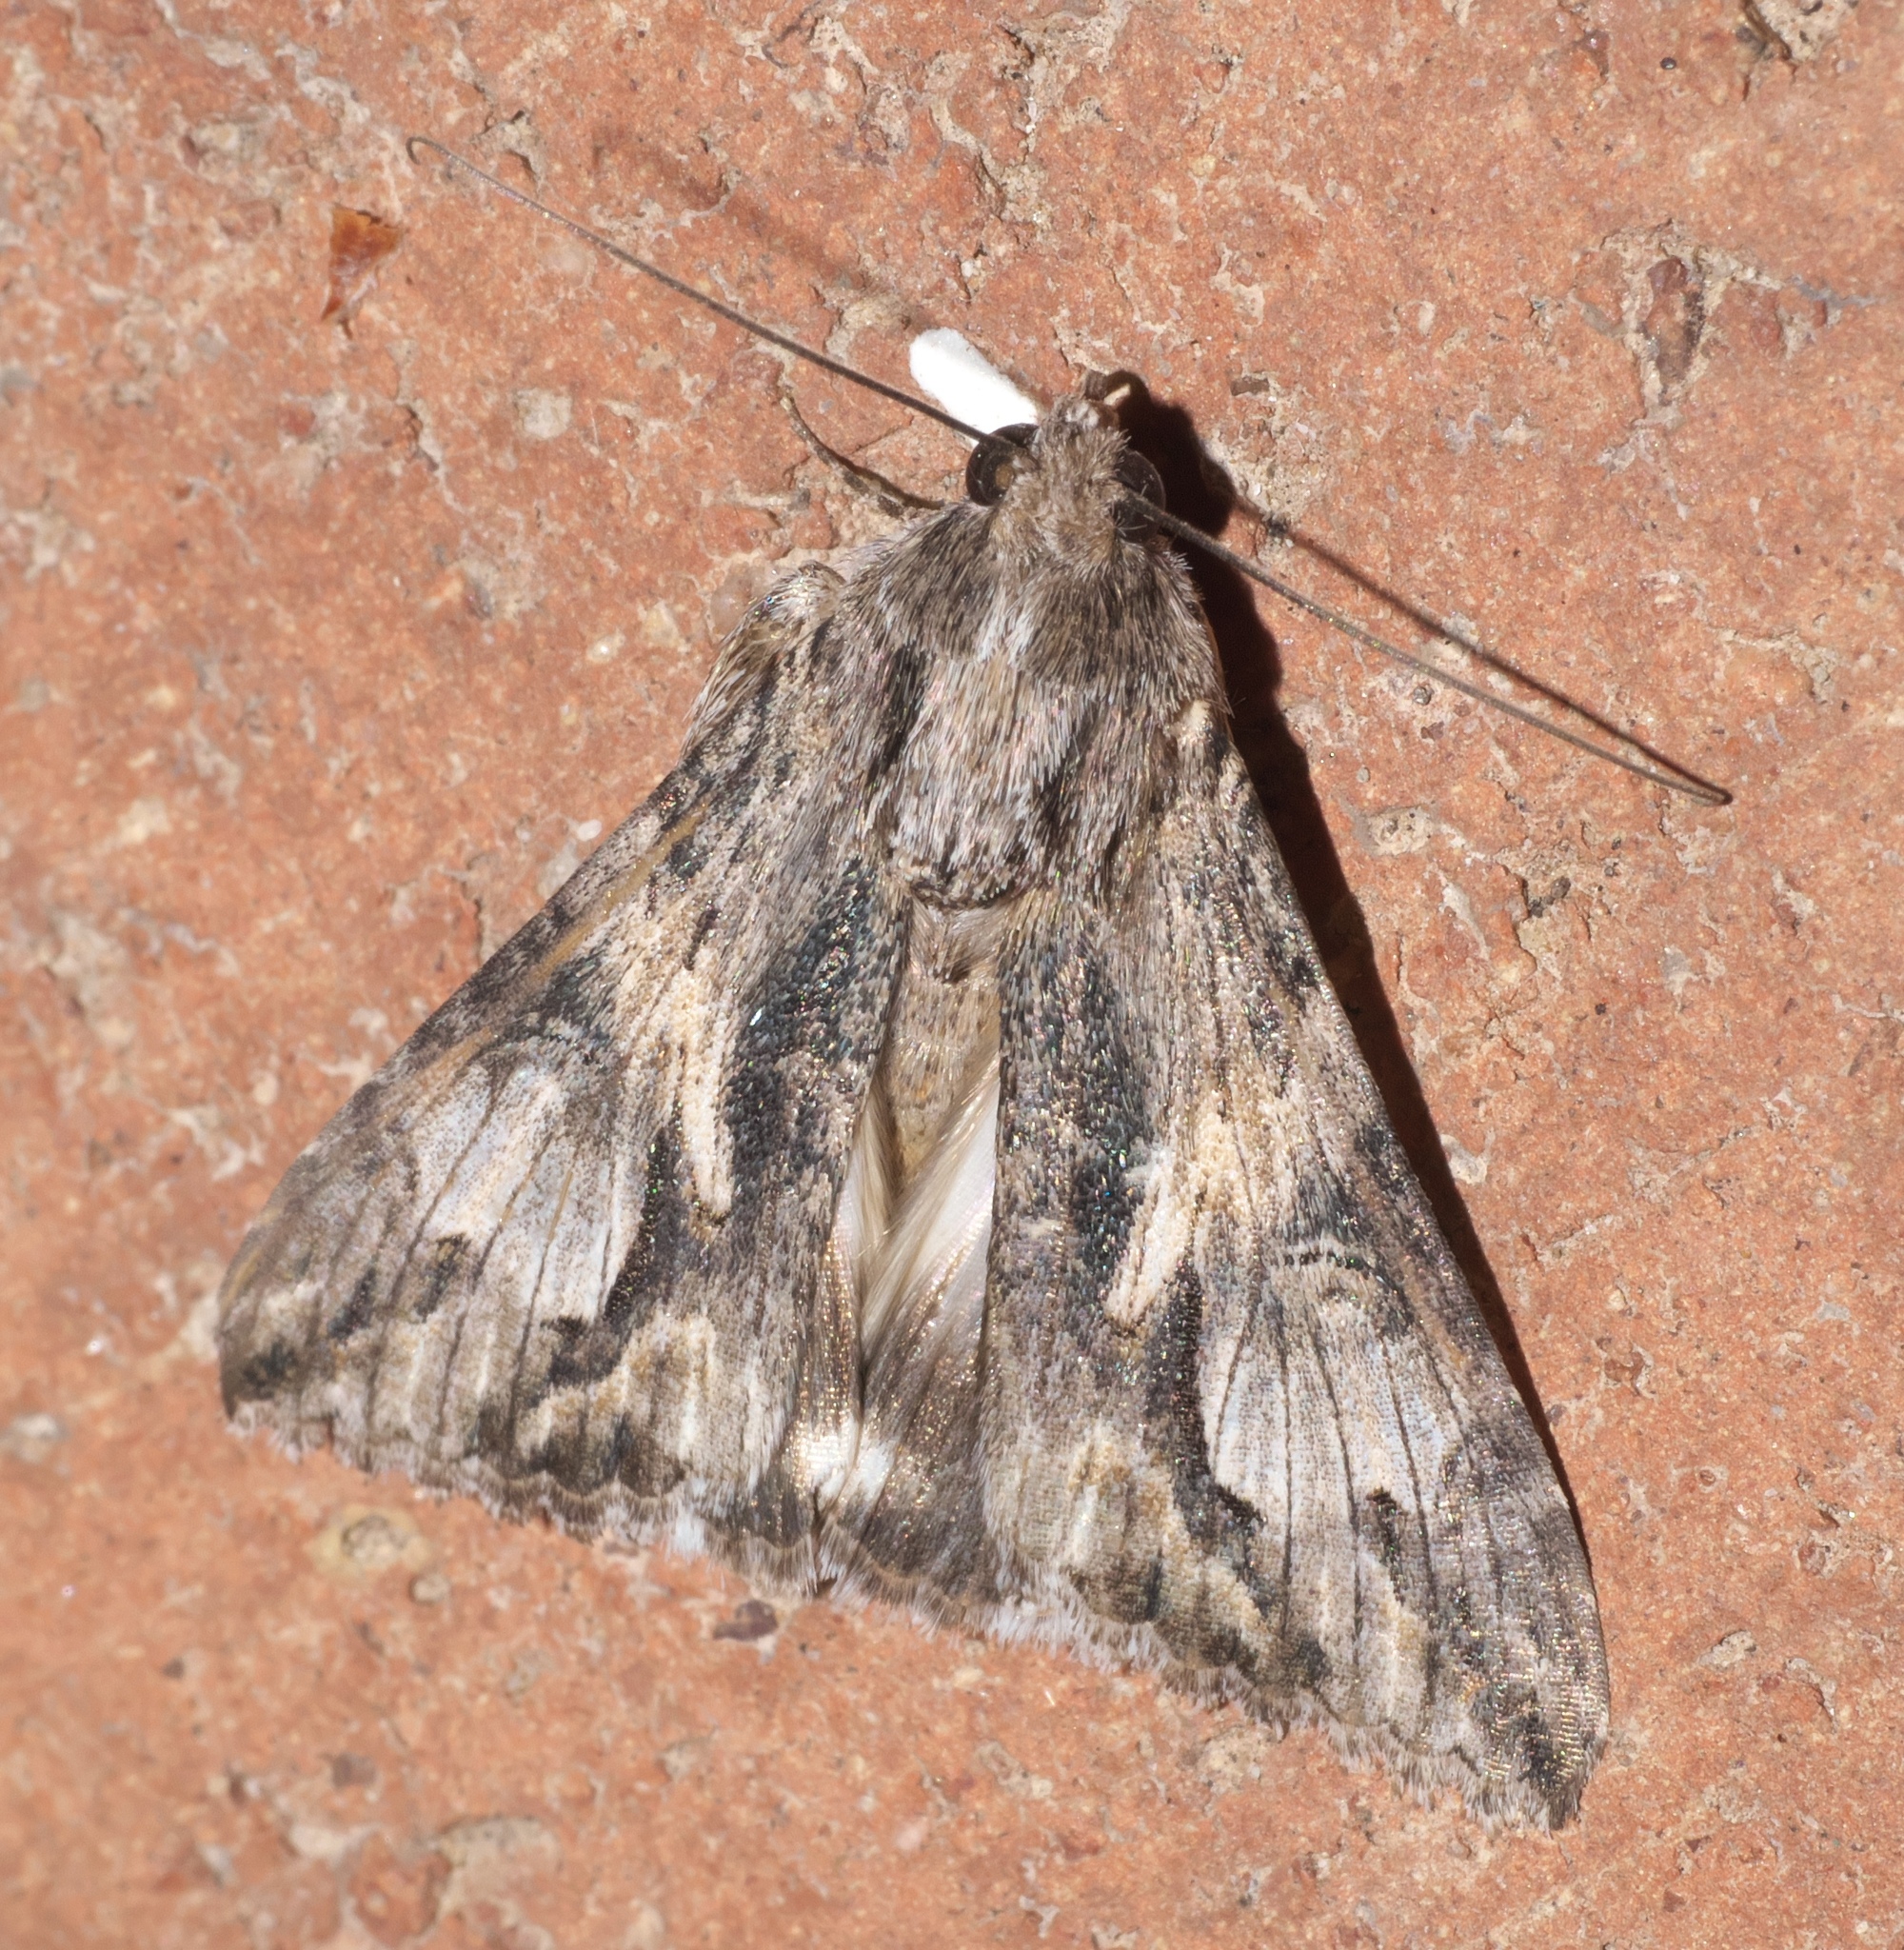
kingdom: Animalia
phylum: Arthropoda
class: Insecta
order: Lepidoptera
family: Erebidae
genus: Melipotis
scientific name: Melipotis jucunda
